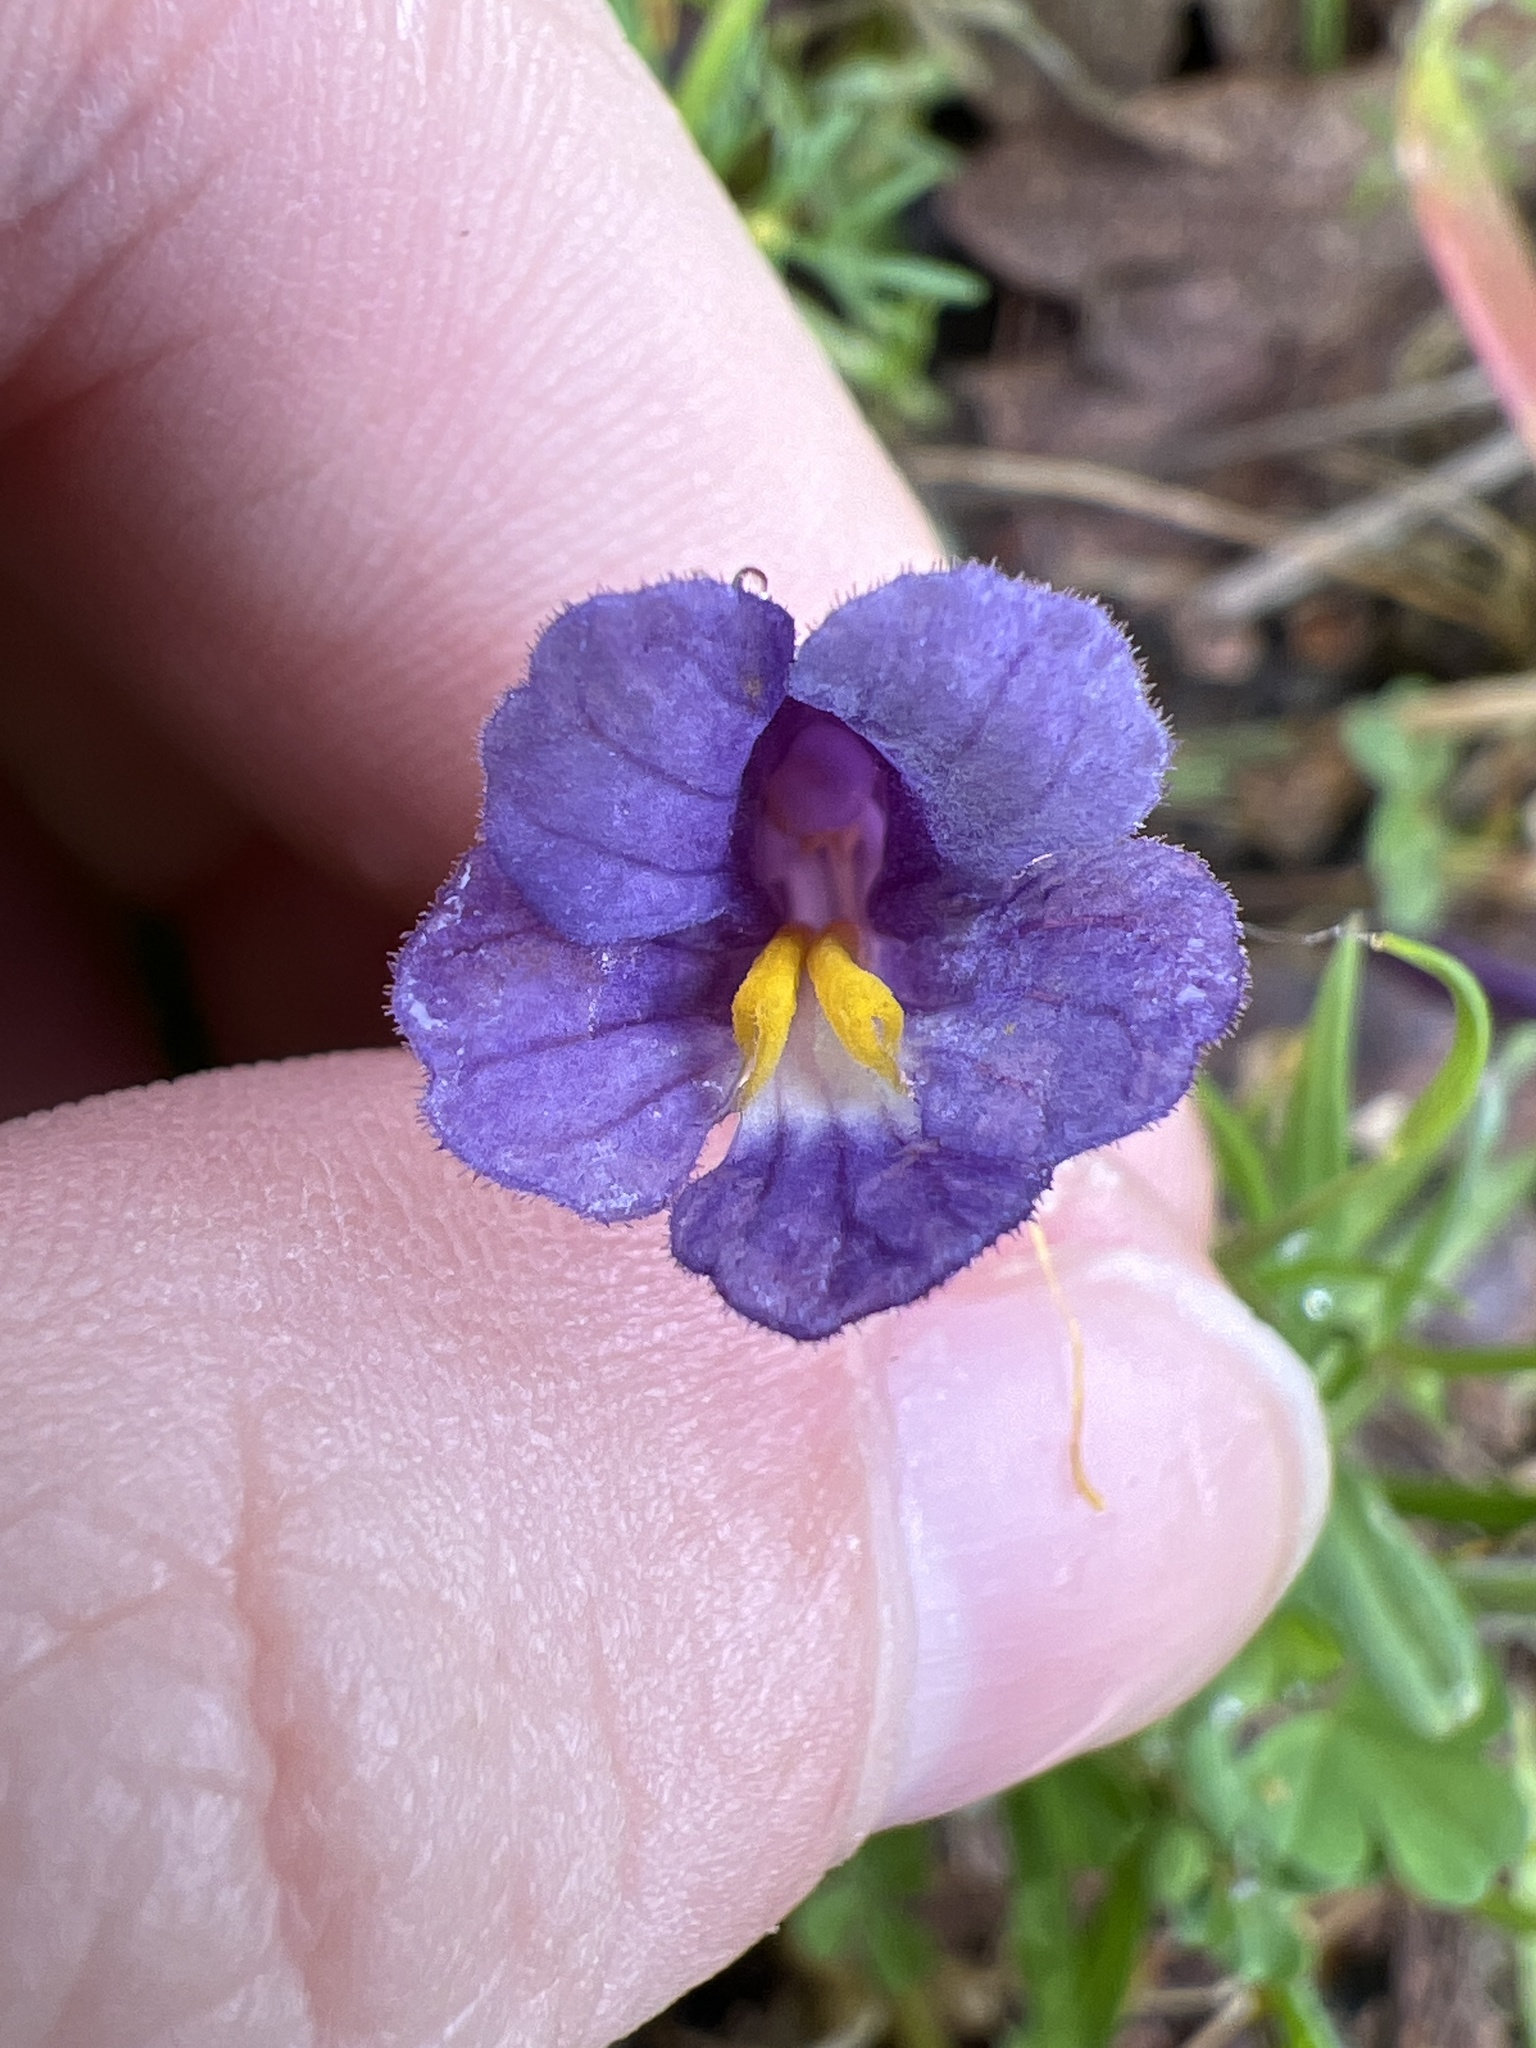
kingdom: Plantae
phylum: Tracheophyta
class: Magnoliopsida
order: Lamiales
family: Orobanchaceae
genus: Aphyllon
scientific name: Aphyllon uniflorum
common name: One-flowered broomrape
